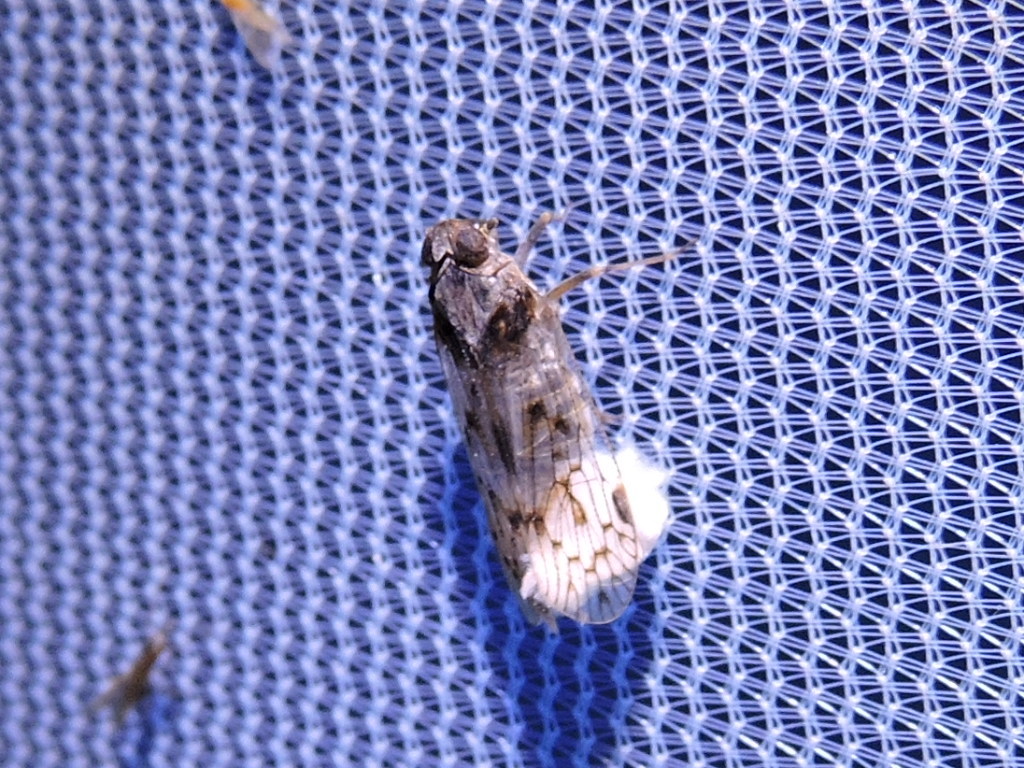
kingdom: Animalia
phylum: Arthropoda
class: Insecta
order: Hemiptera
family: Cixiidae
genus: Melanoliarus
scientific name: Melanoliarus aridus
